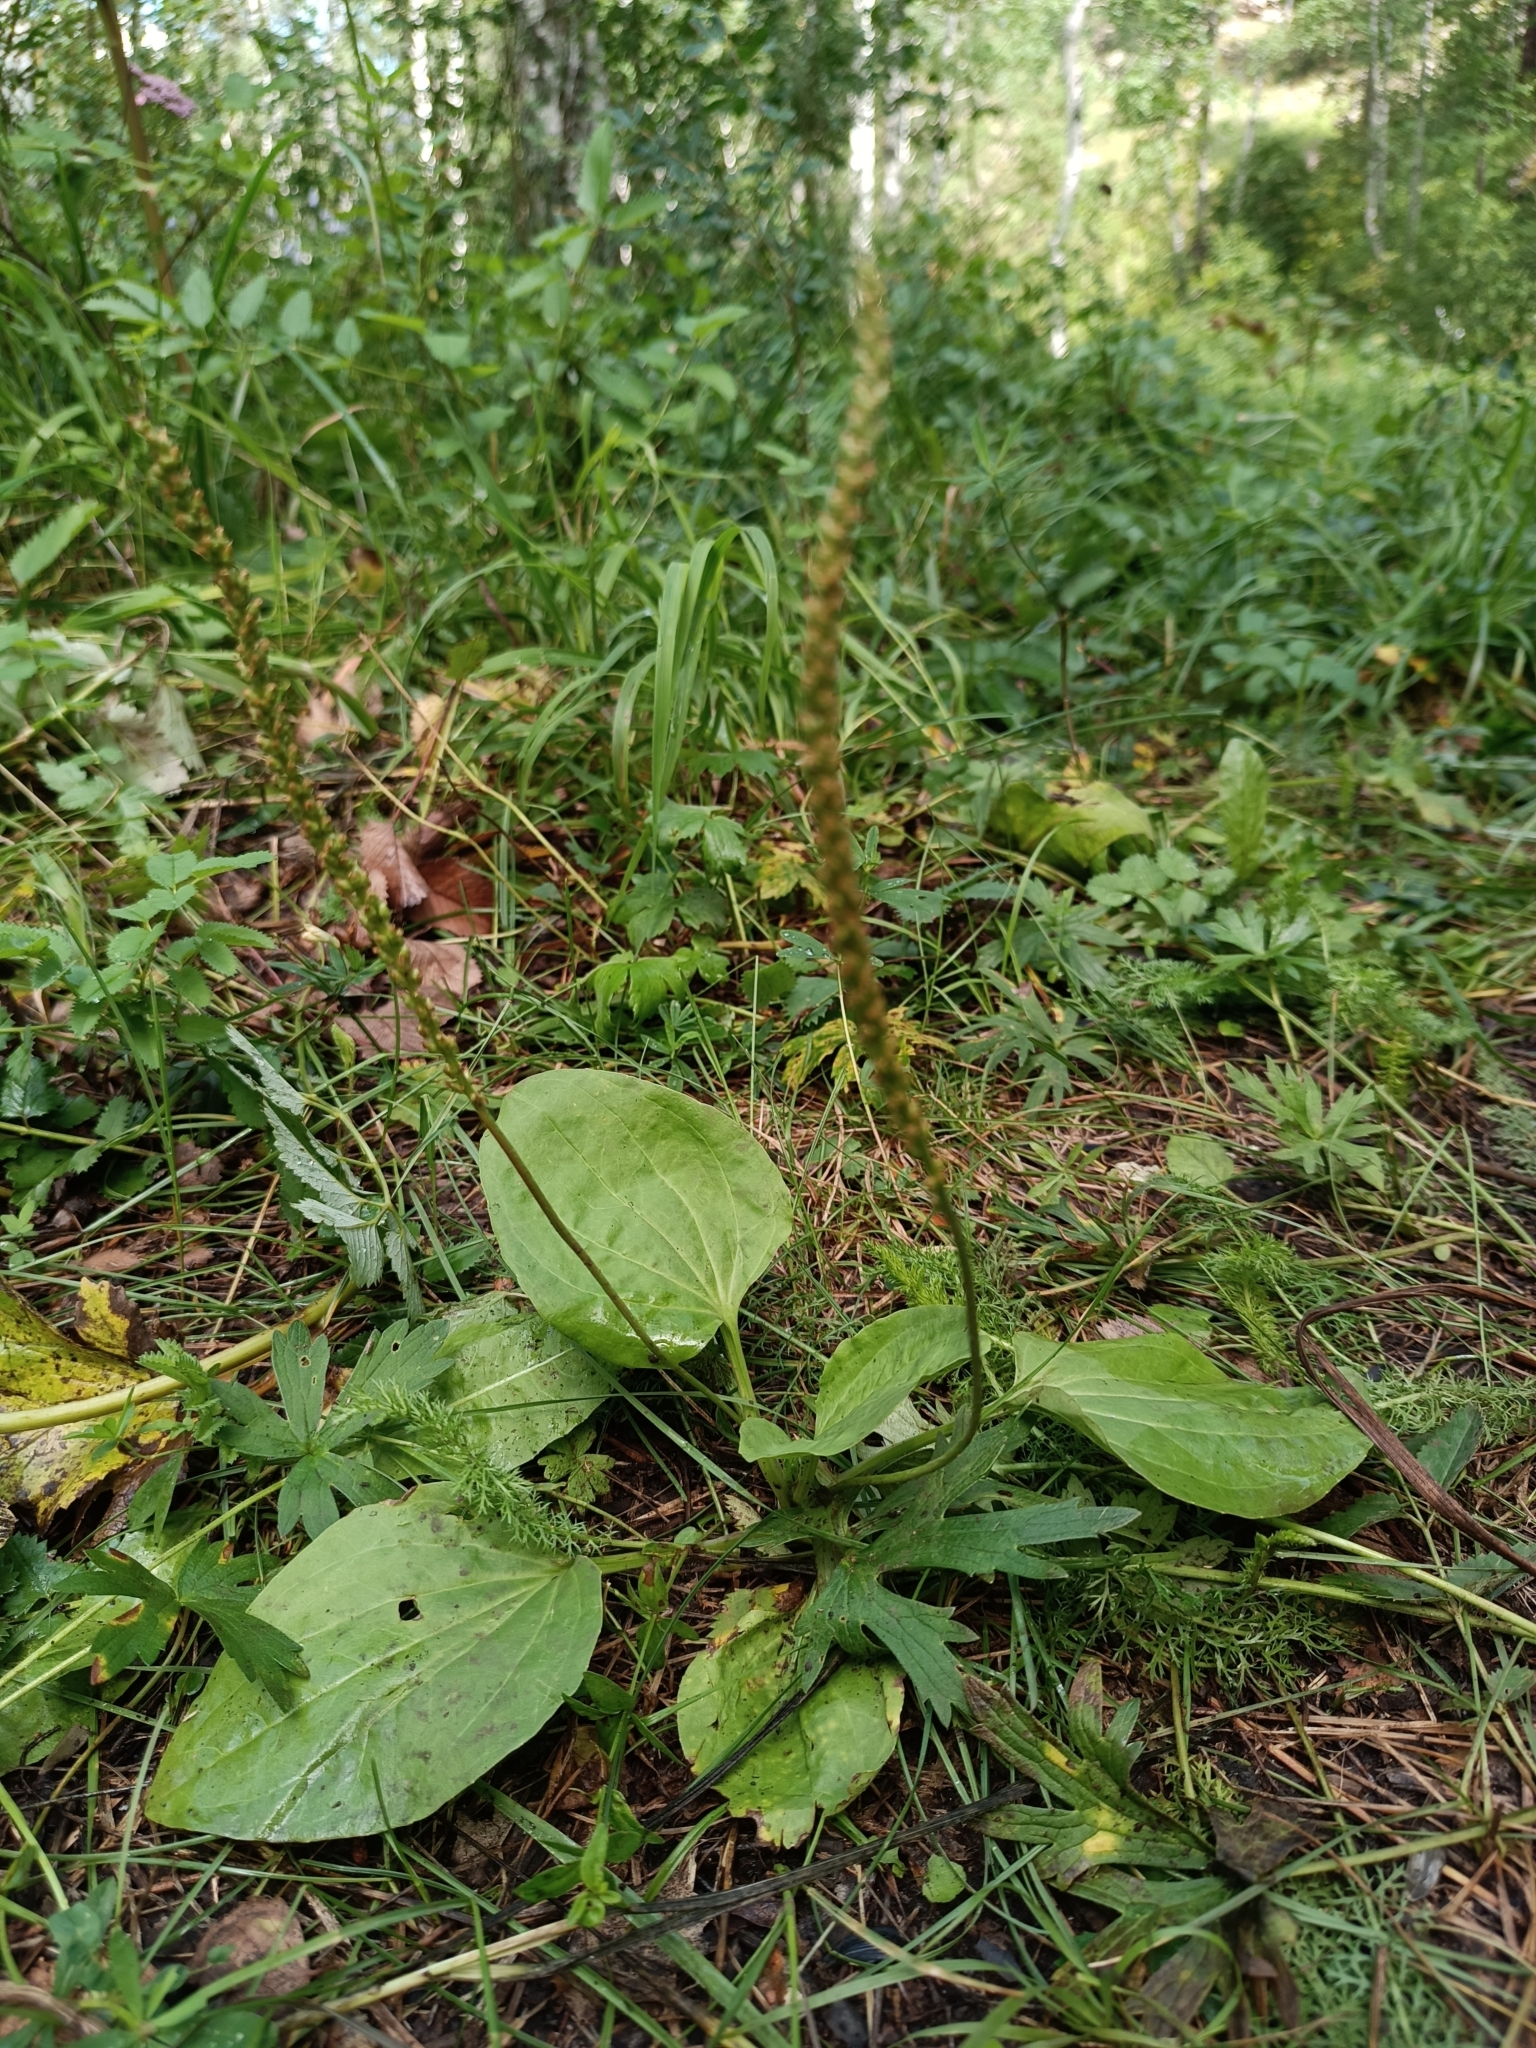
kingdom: Plantae
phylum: Tracheophyta
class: Magnoliopsida
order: Lamiales
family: Plantaginaceae
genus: Plantago
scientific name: Plantago major
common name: Common plantain
